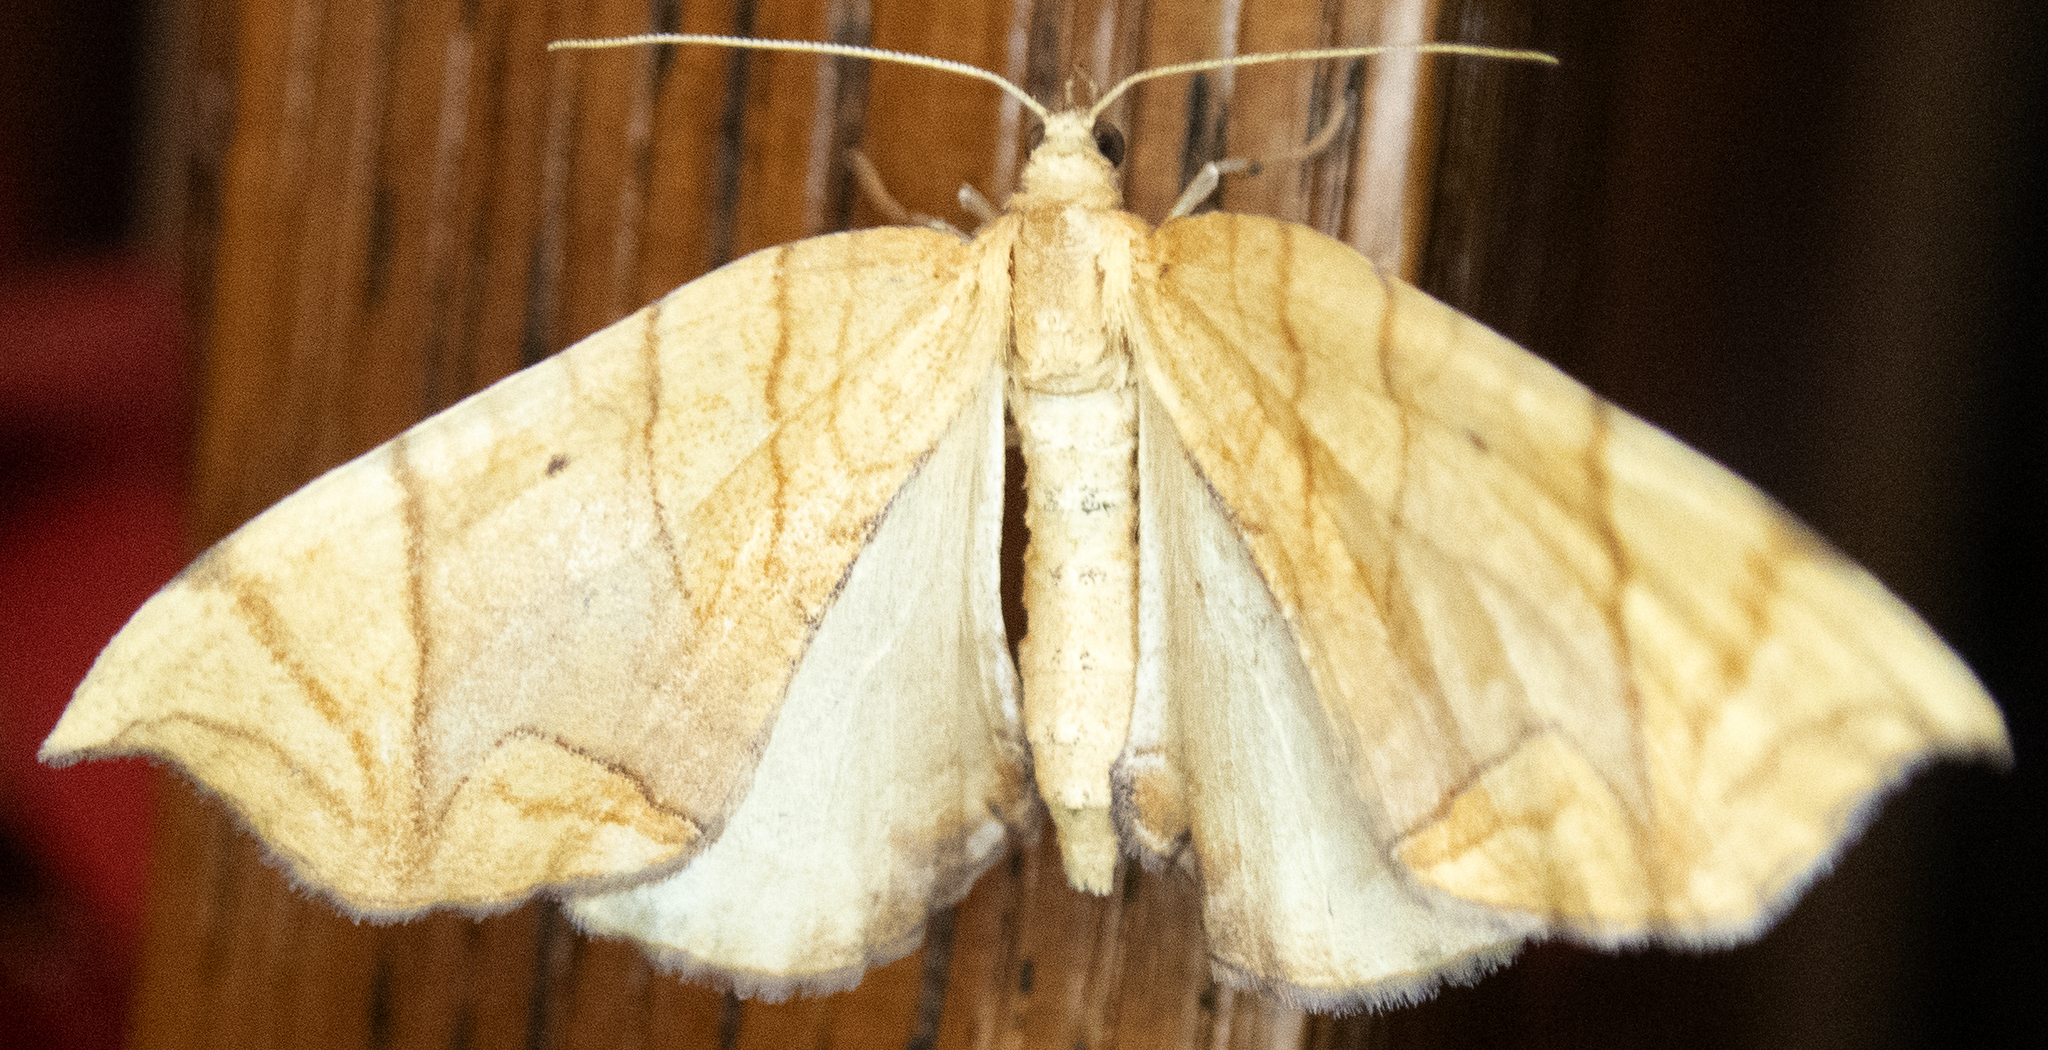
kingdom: Animalia
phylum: Arthropoda
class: Insecta
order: Lepidoptera
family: Geometridae
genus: Eulithis
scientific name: Eulithis diversilineata
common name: Grapevine looper
